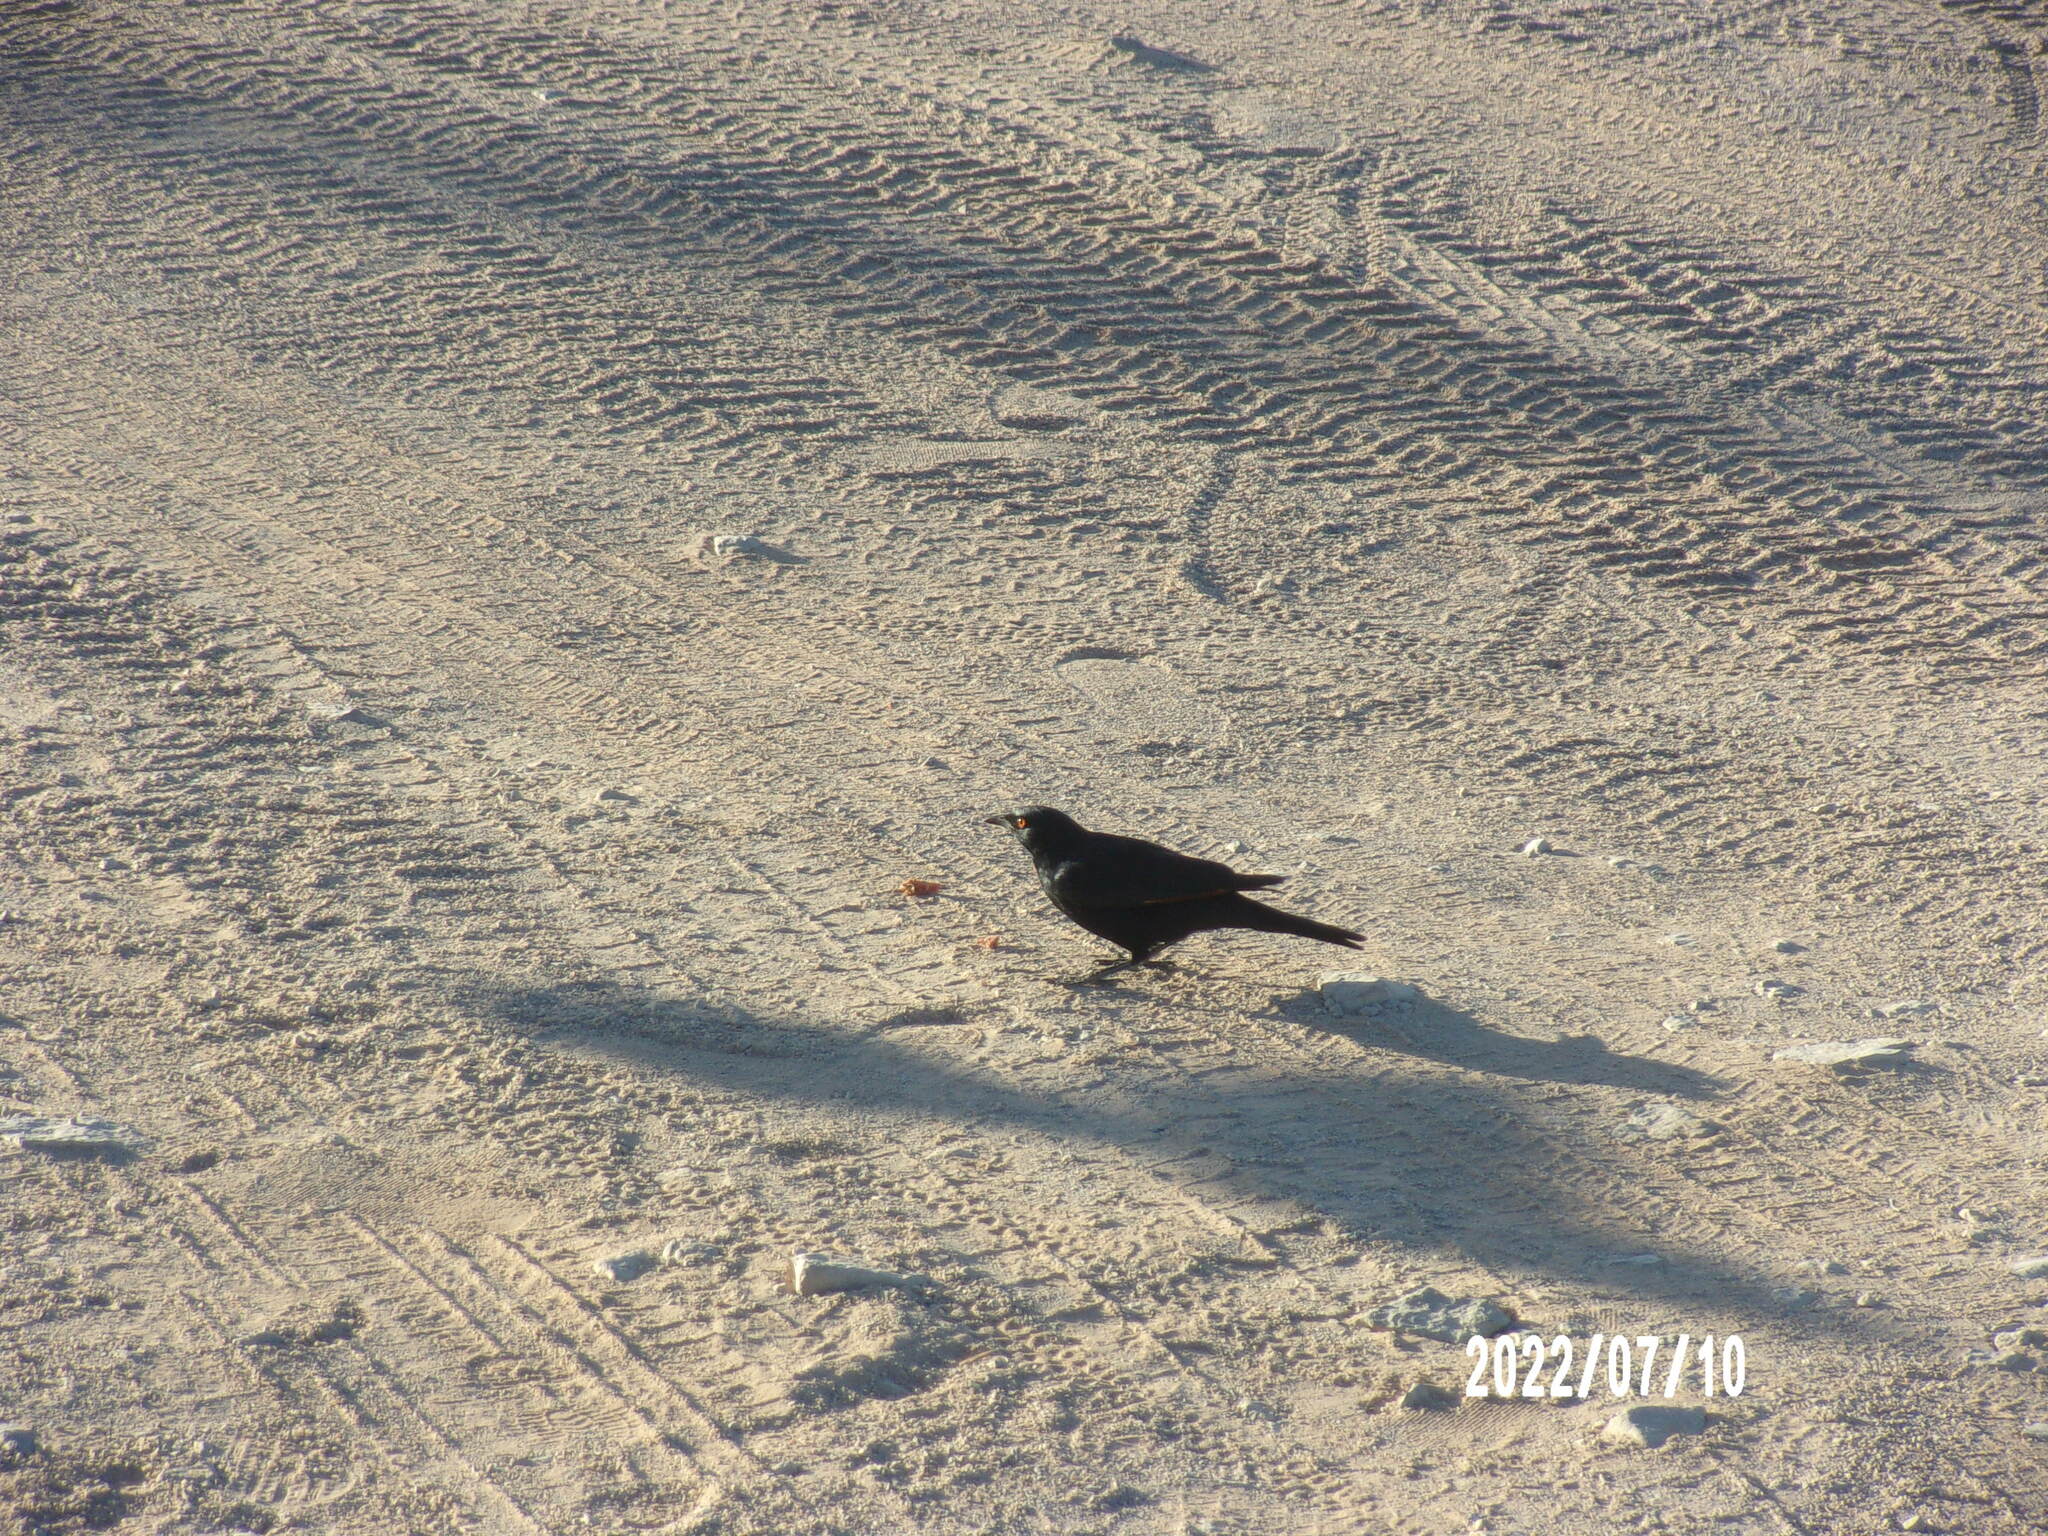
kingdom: Animalia
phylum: Chordata
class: Aves
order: Passeriformes
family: Sturnidae
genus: Onychognathus
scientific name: Onychognathus nabouroup
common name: Pale-winged starling
